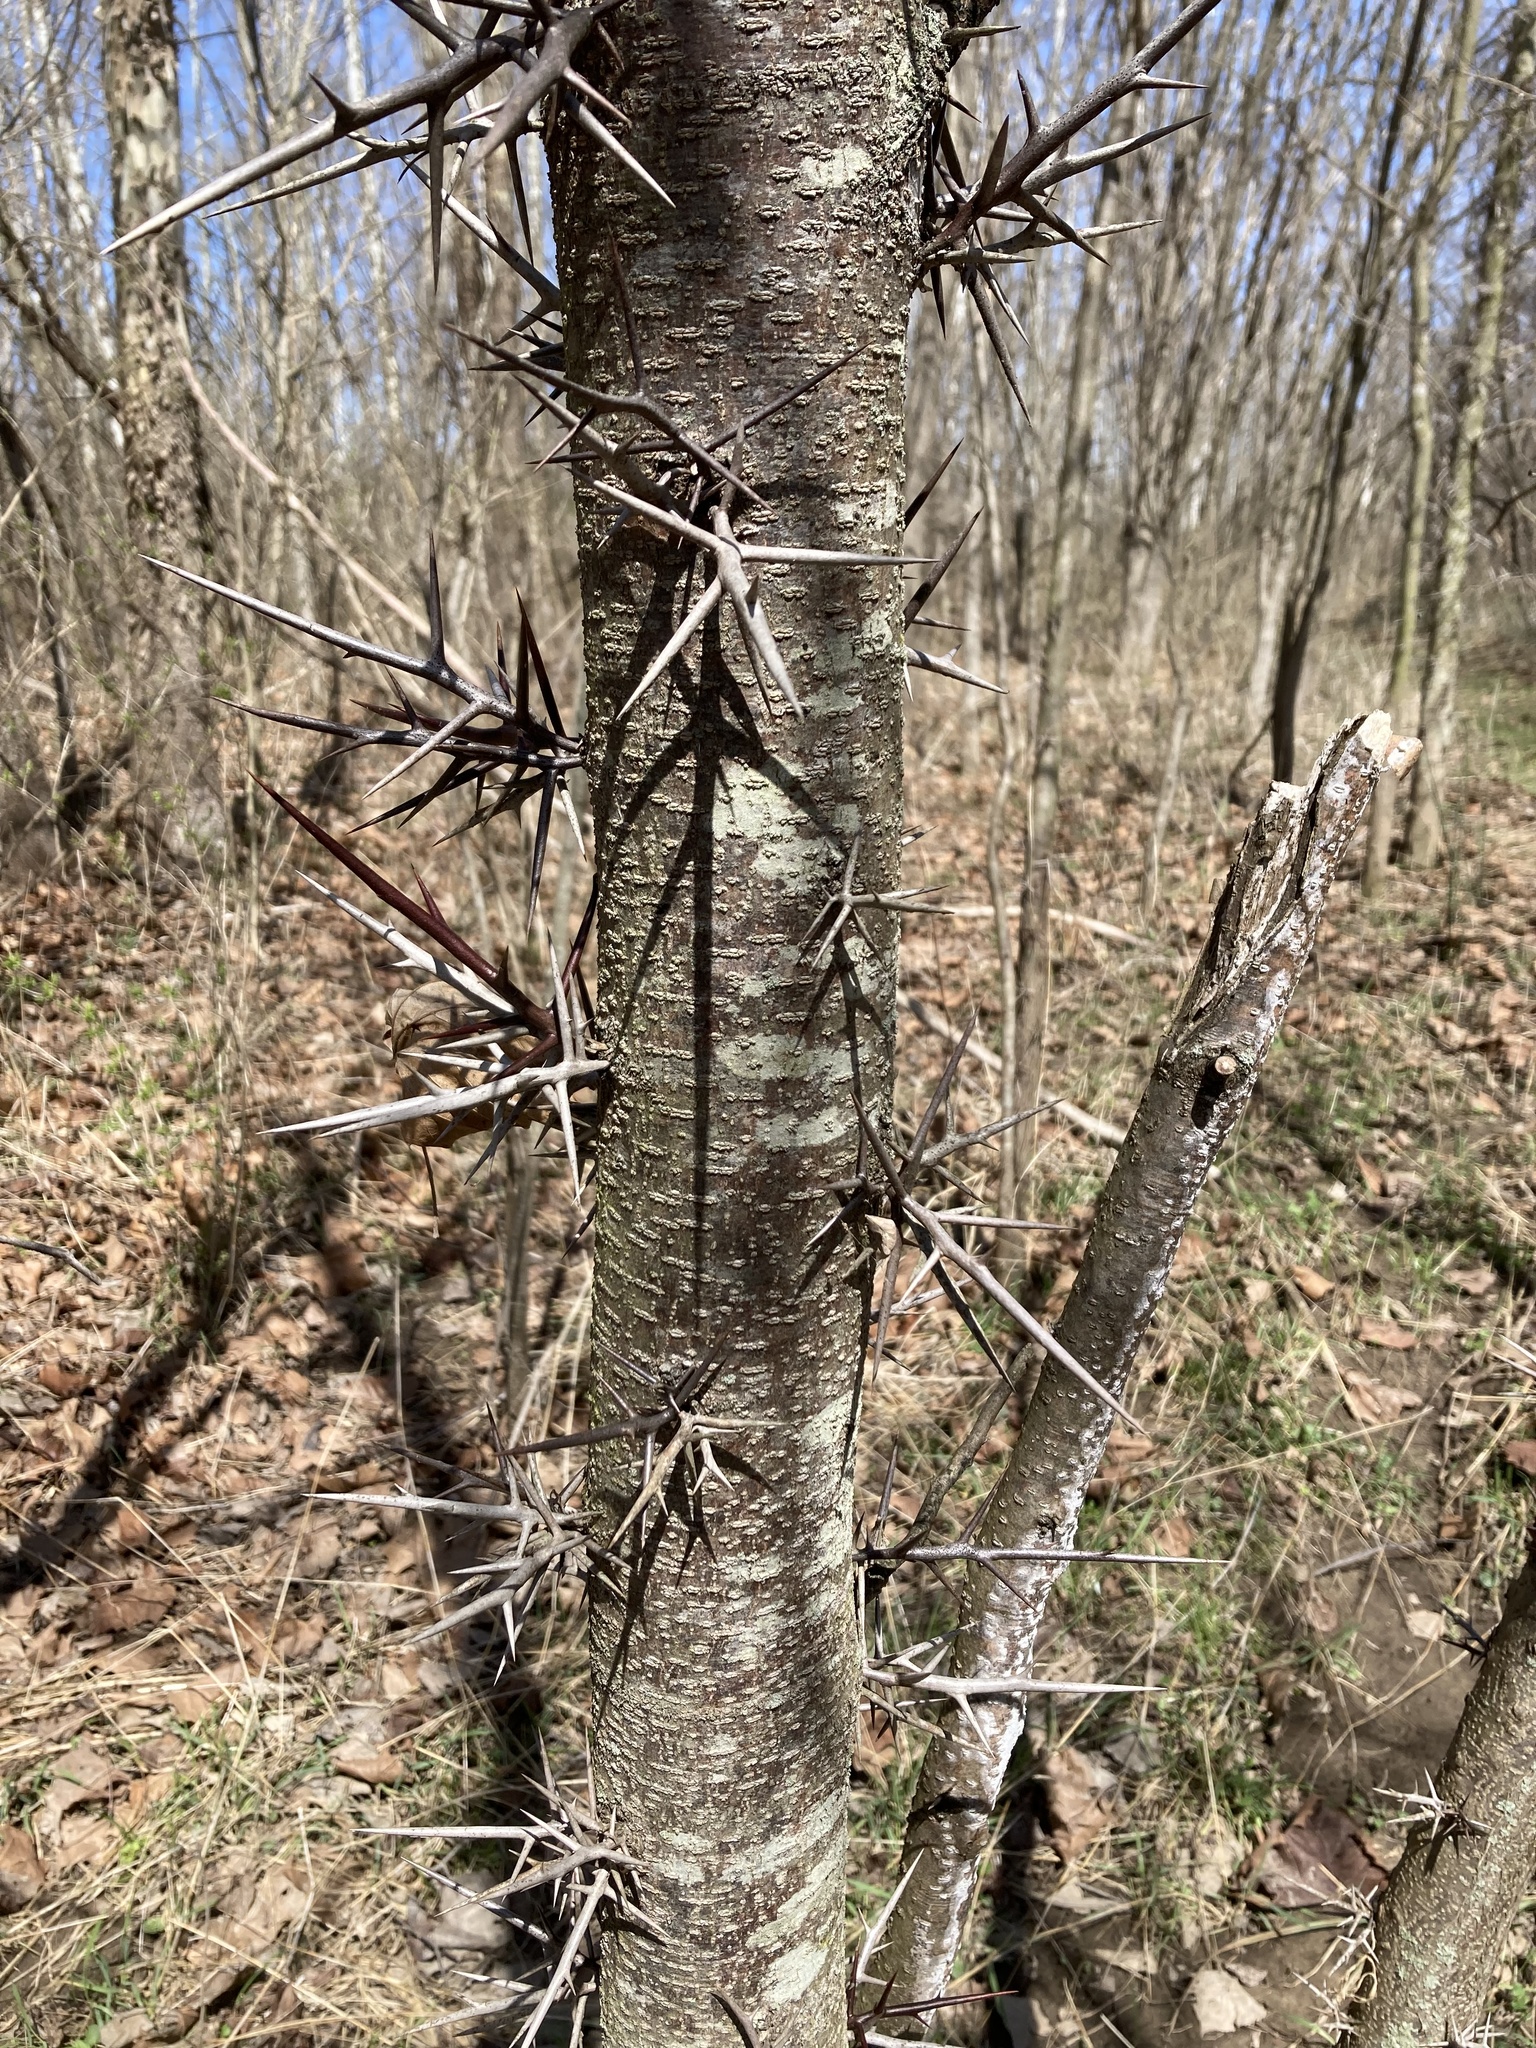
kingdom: Plantae
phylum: Tracheophyta
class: Magnoliopsida
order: Fabales
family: Fabaceae
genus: Gleditsia
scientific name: Gleditsia triacanthos
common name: Common honeylocust
